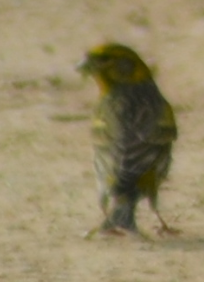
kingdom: Animalia
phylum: Chordata
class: Aves
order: Passeriformes
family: Fringillidae
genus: Serinus
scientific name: Serinus serinus
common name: European serin
